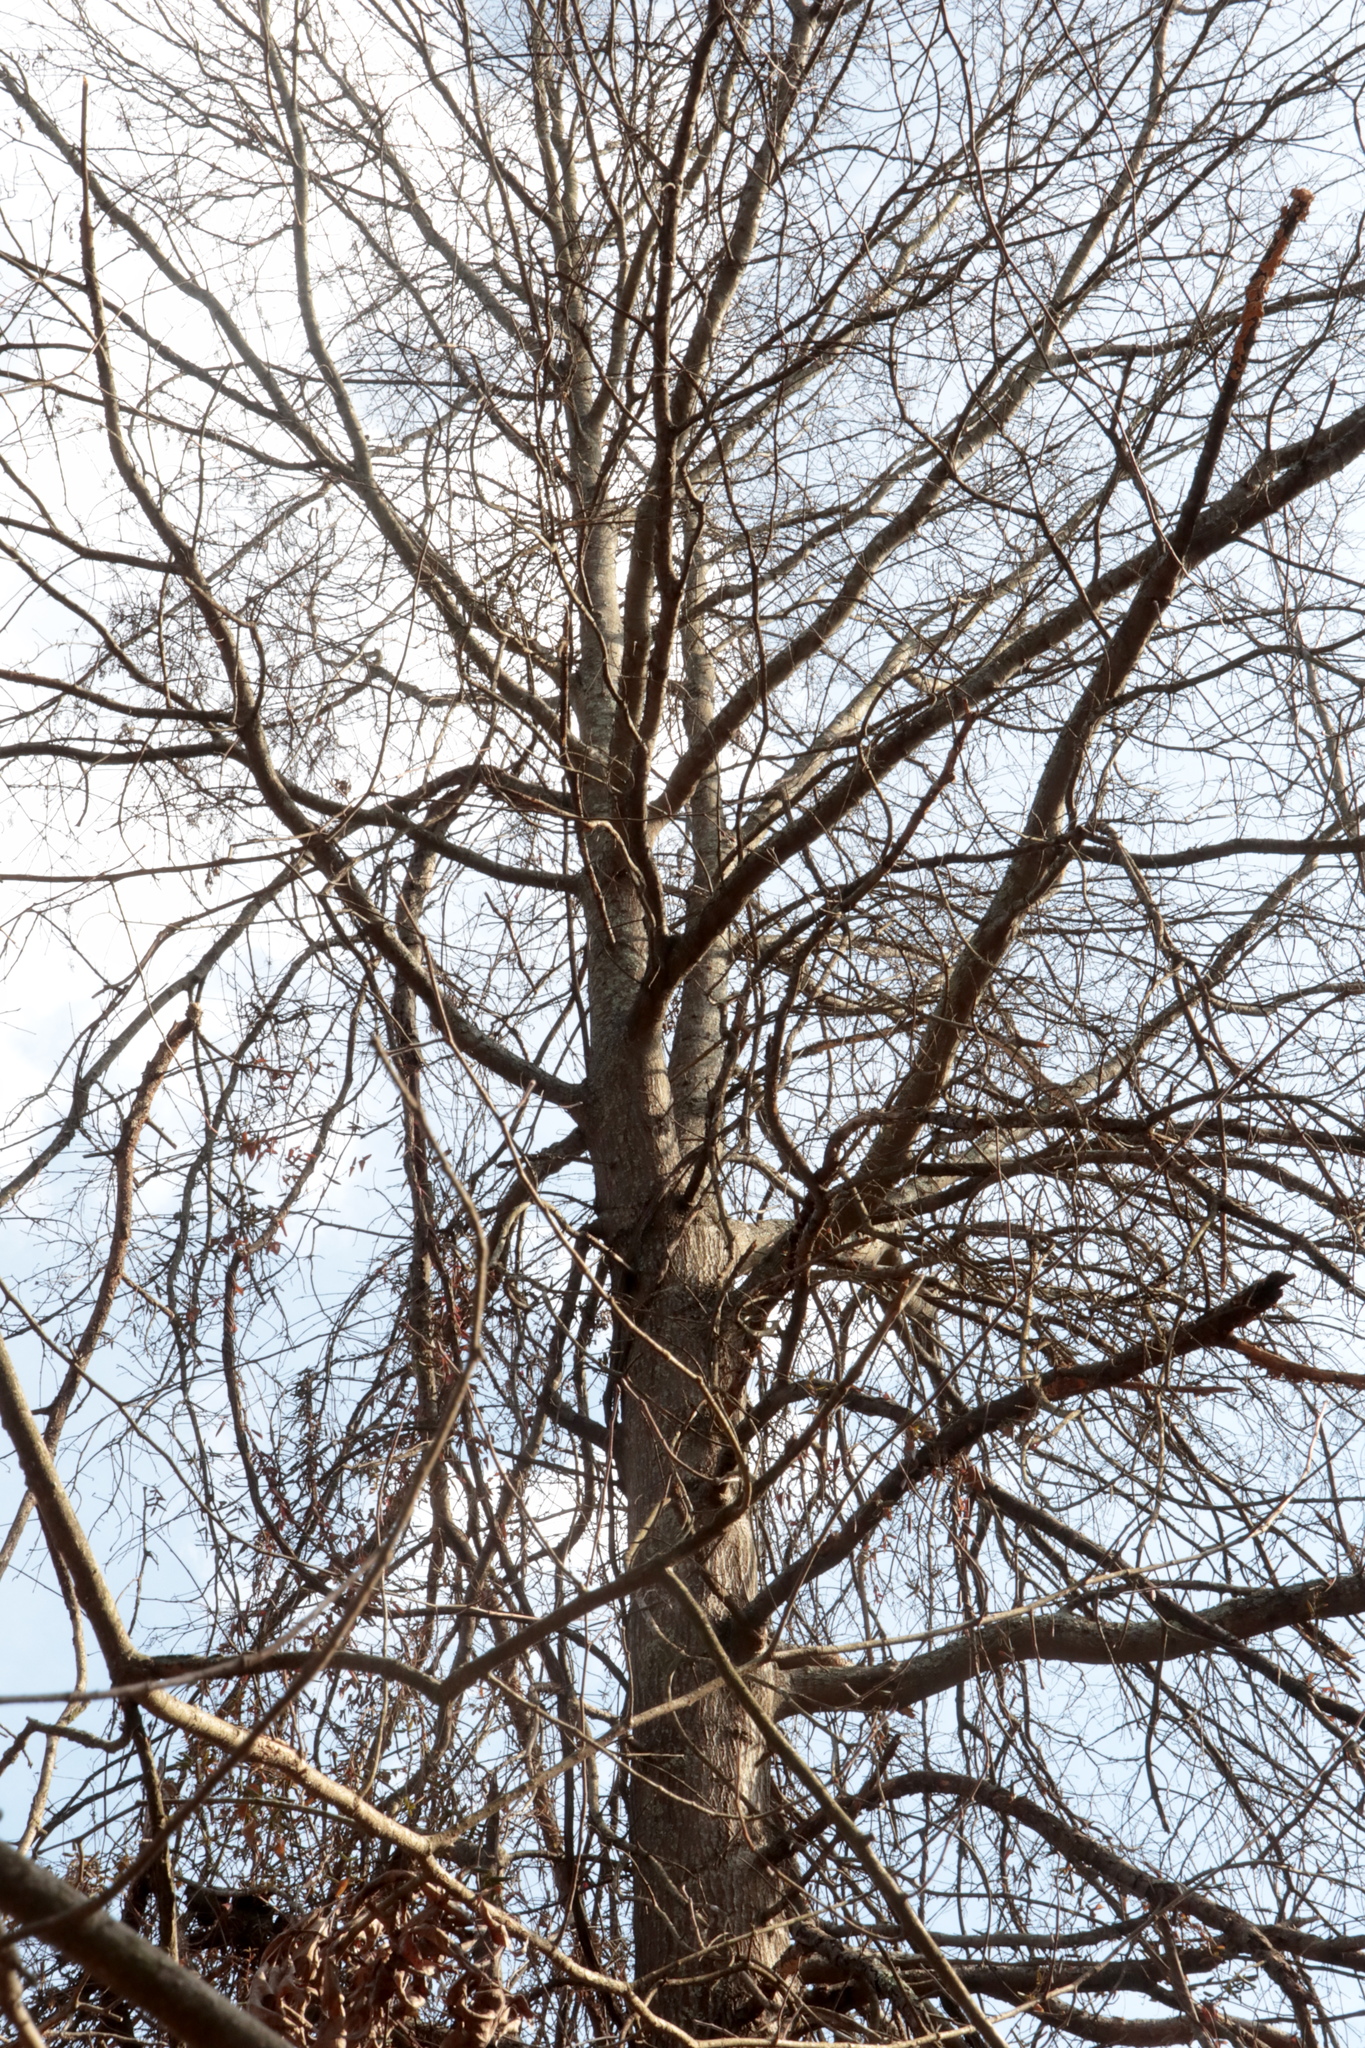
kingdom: Plantae
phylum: Tracheophyta
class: Magnoliopsida
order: Fagales
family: Fagaceae
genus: Quercus
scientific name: Quercus palustris
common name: Pin oak
